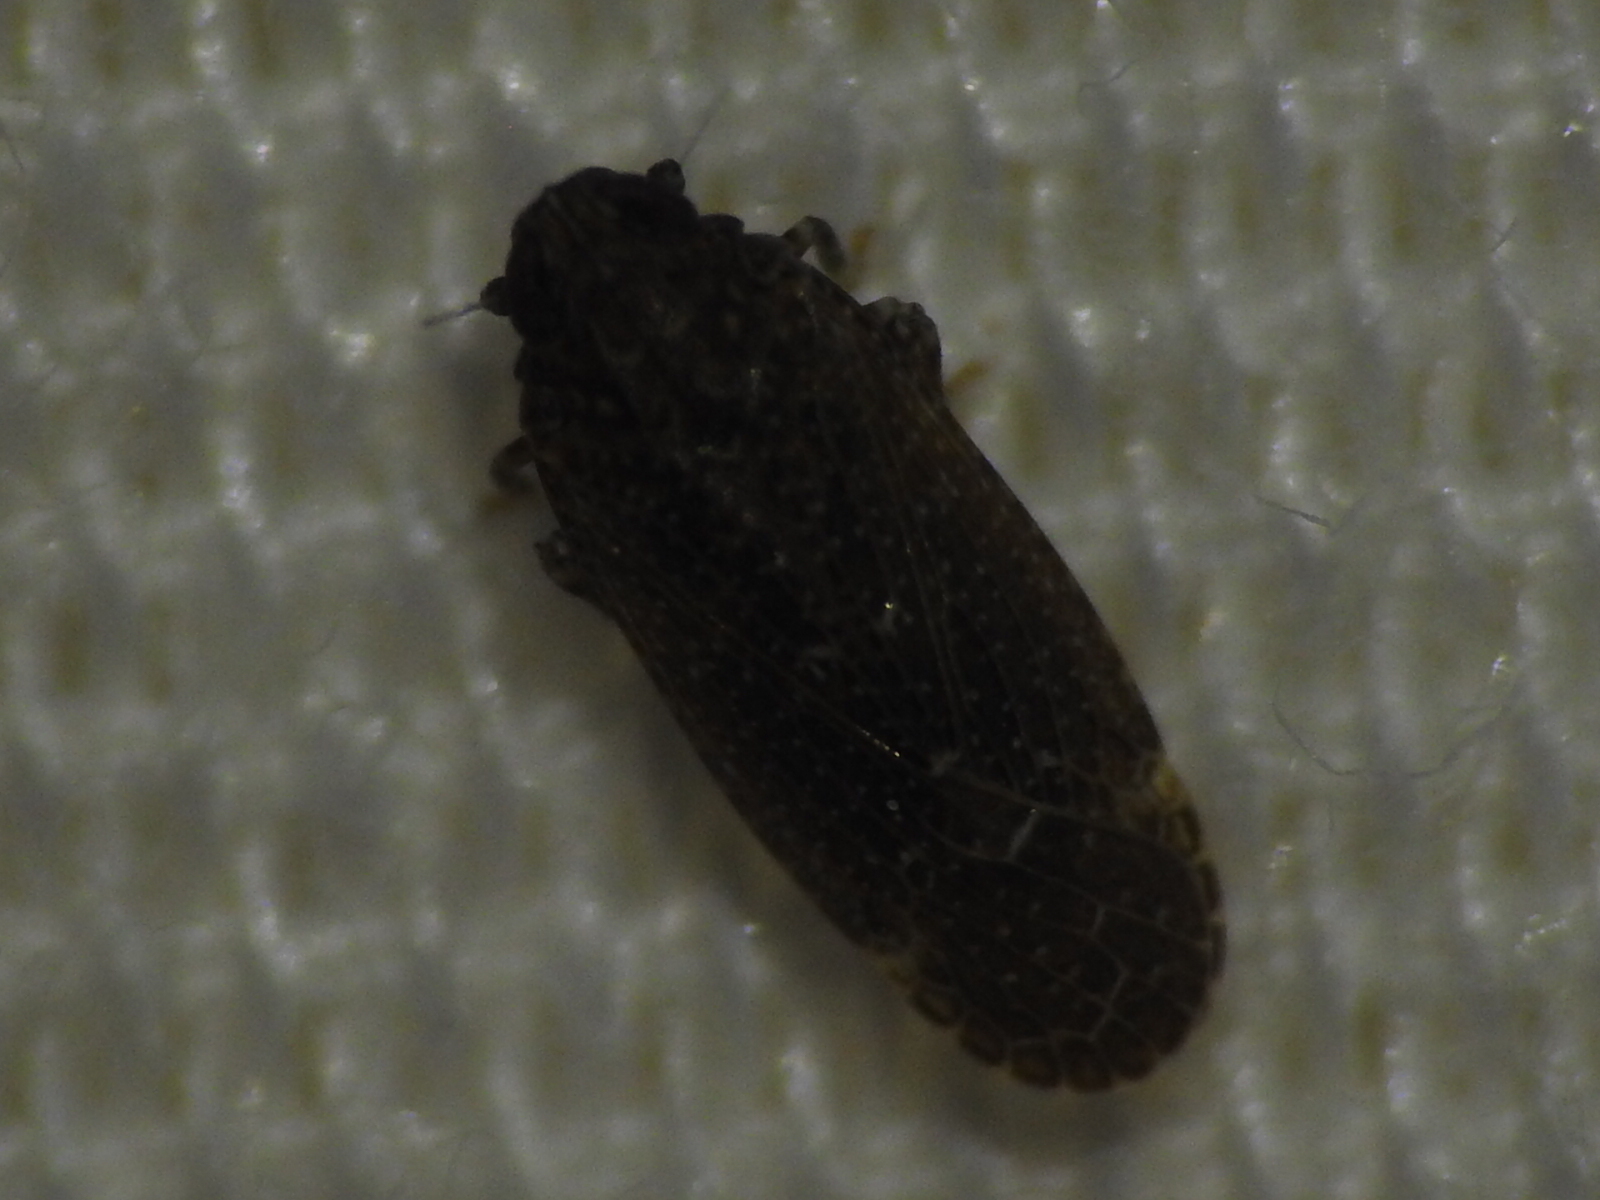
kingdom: Animalia
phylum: Arthropoda
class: Insecta
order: Hemiptera
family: Achilidae
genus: Opsiplanon
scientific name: Opsiplanon luellus
